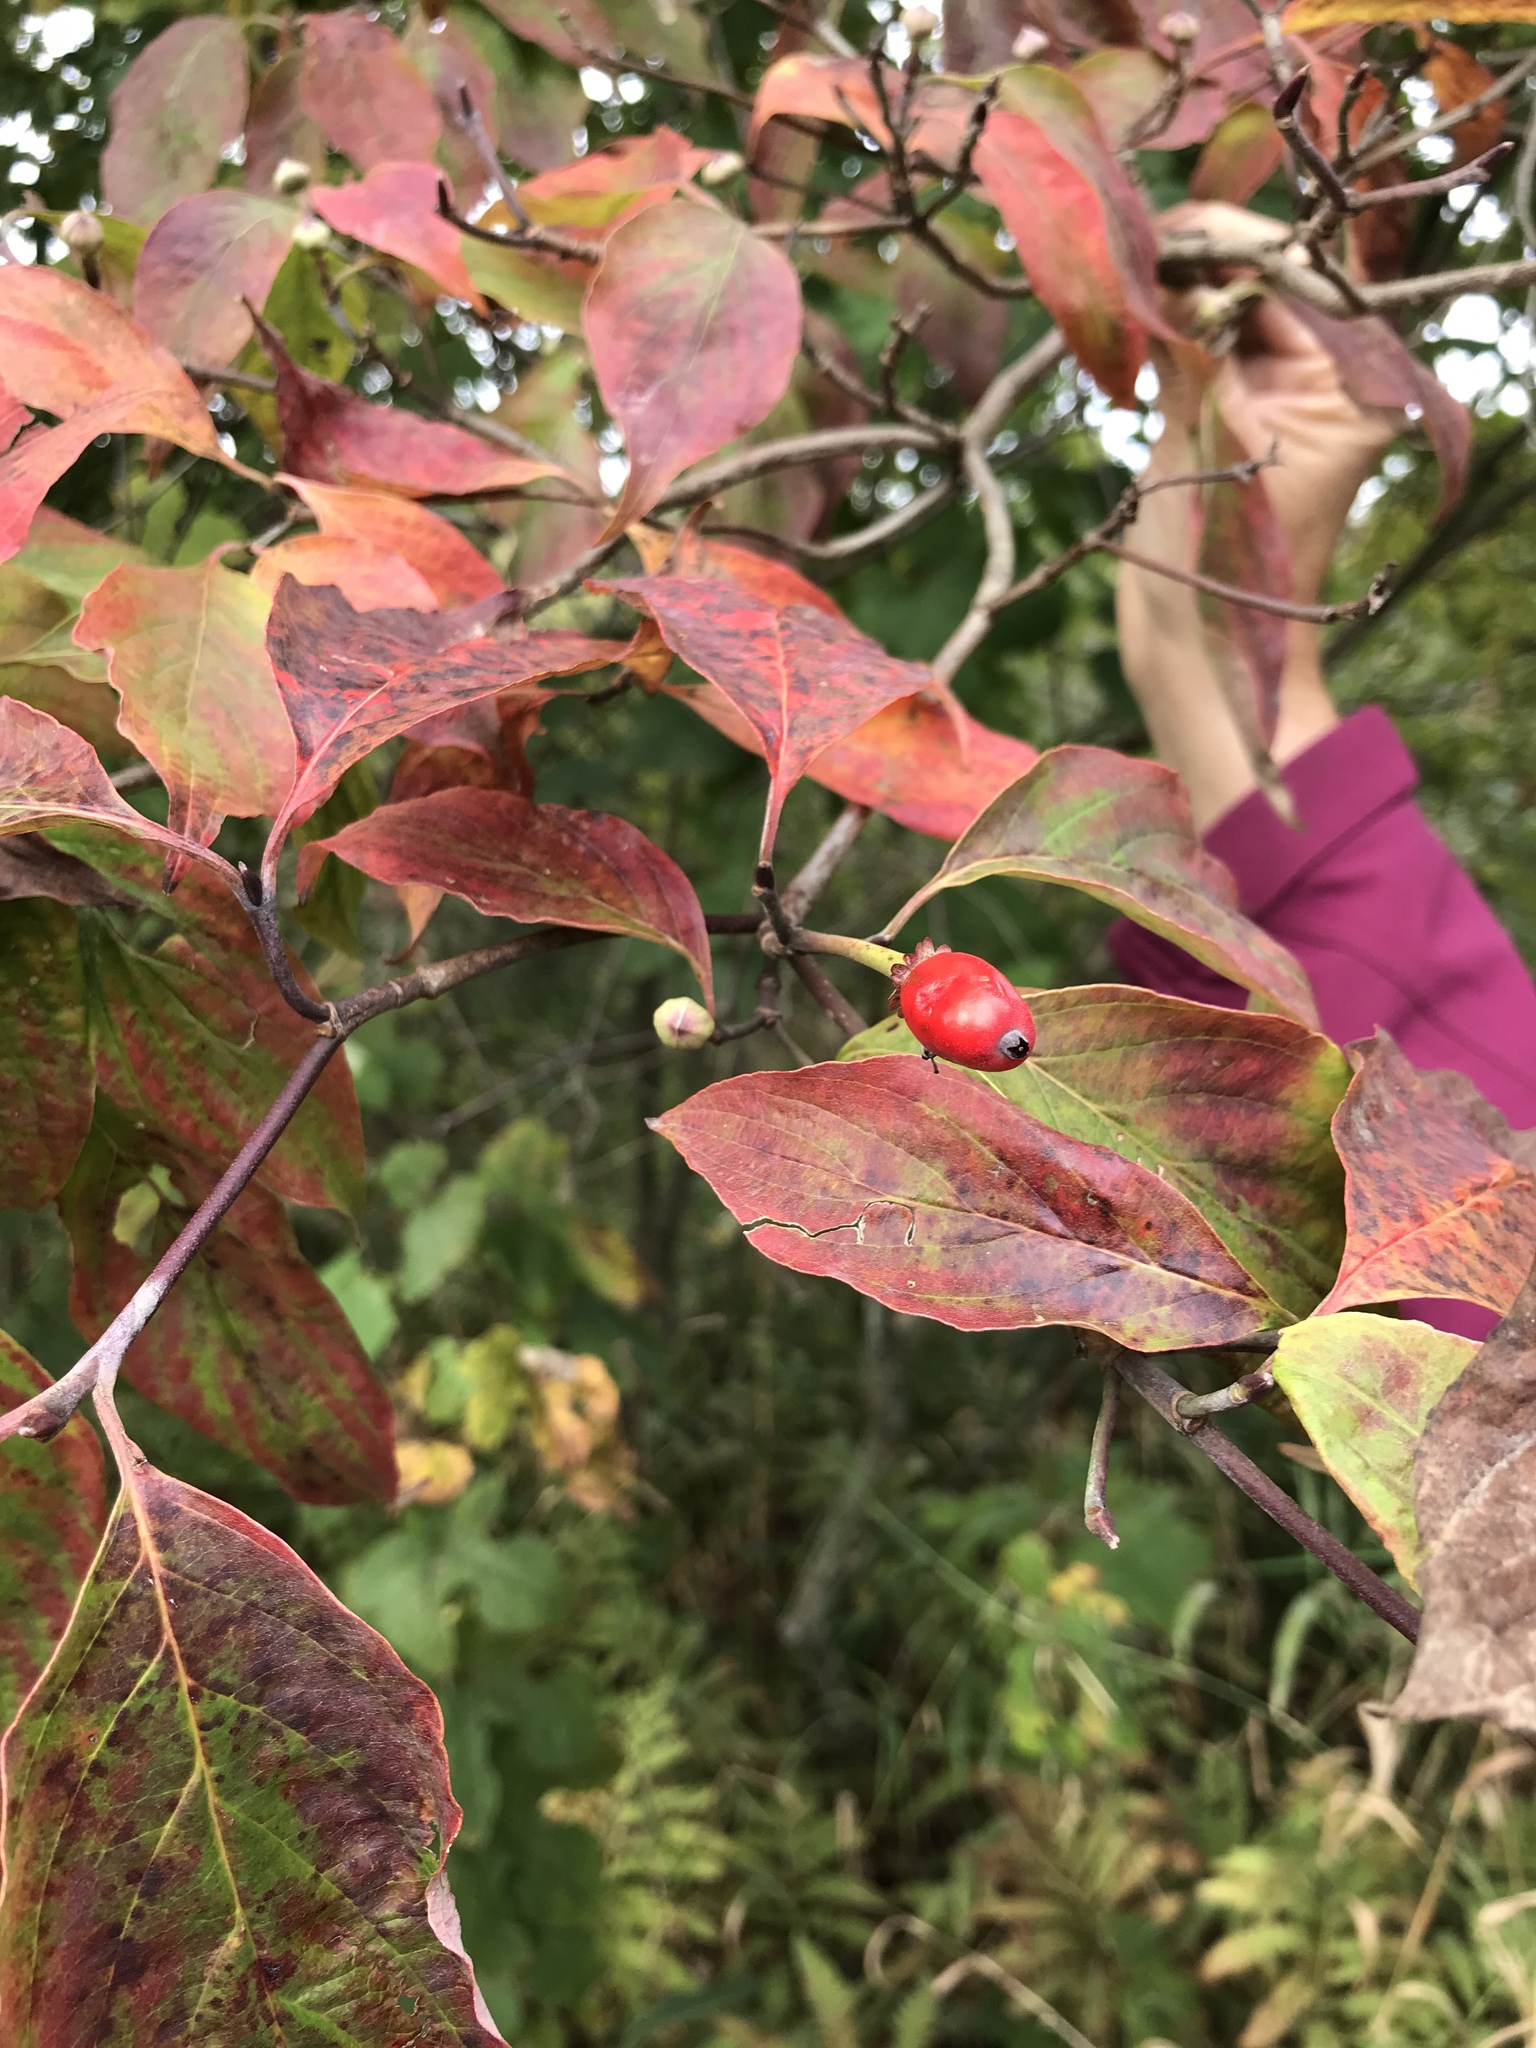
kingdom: Plantae
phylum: Tracheophyta
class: Magnoliopsida
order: Cornales
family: Cornaceae
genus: Cornus
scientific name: Cornus florida
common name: Flowering dogwood
